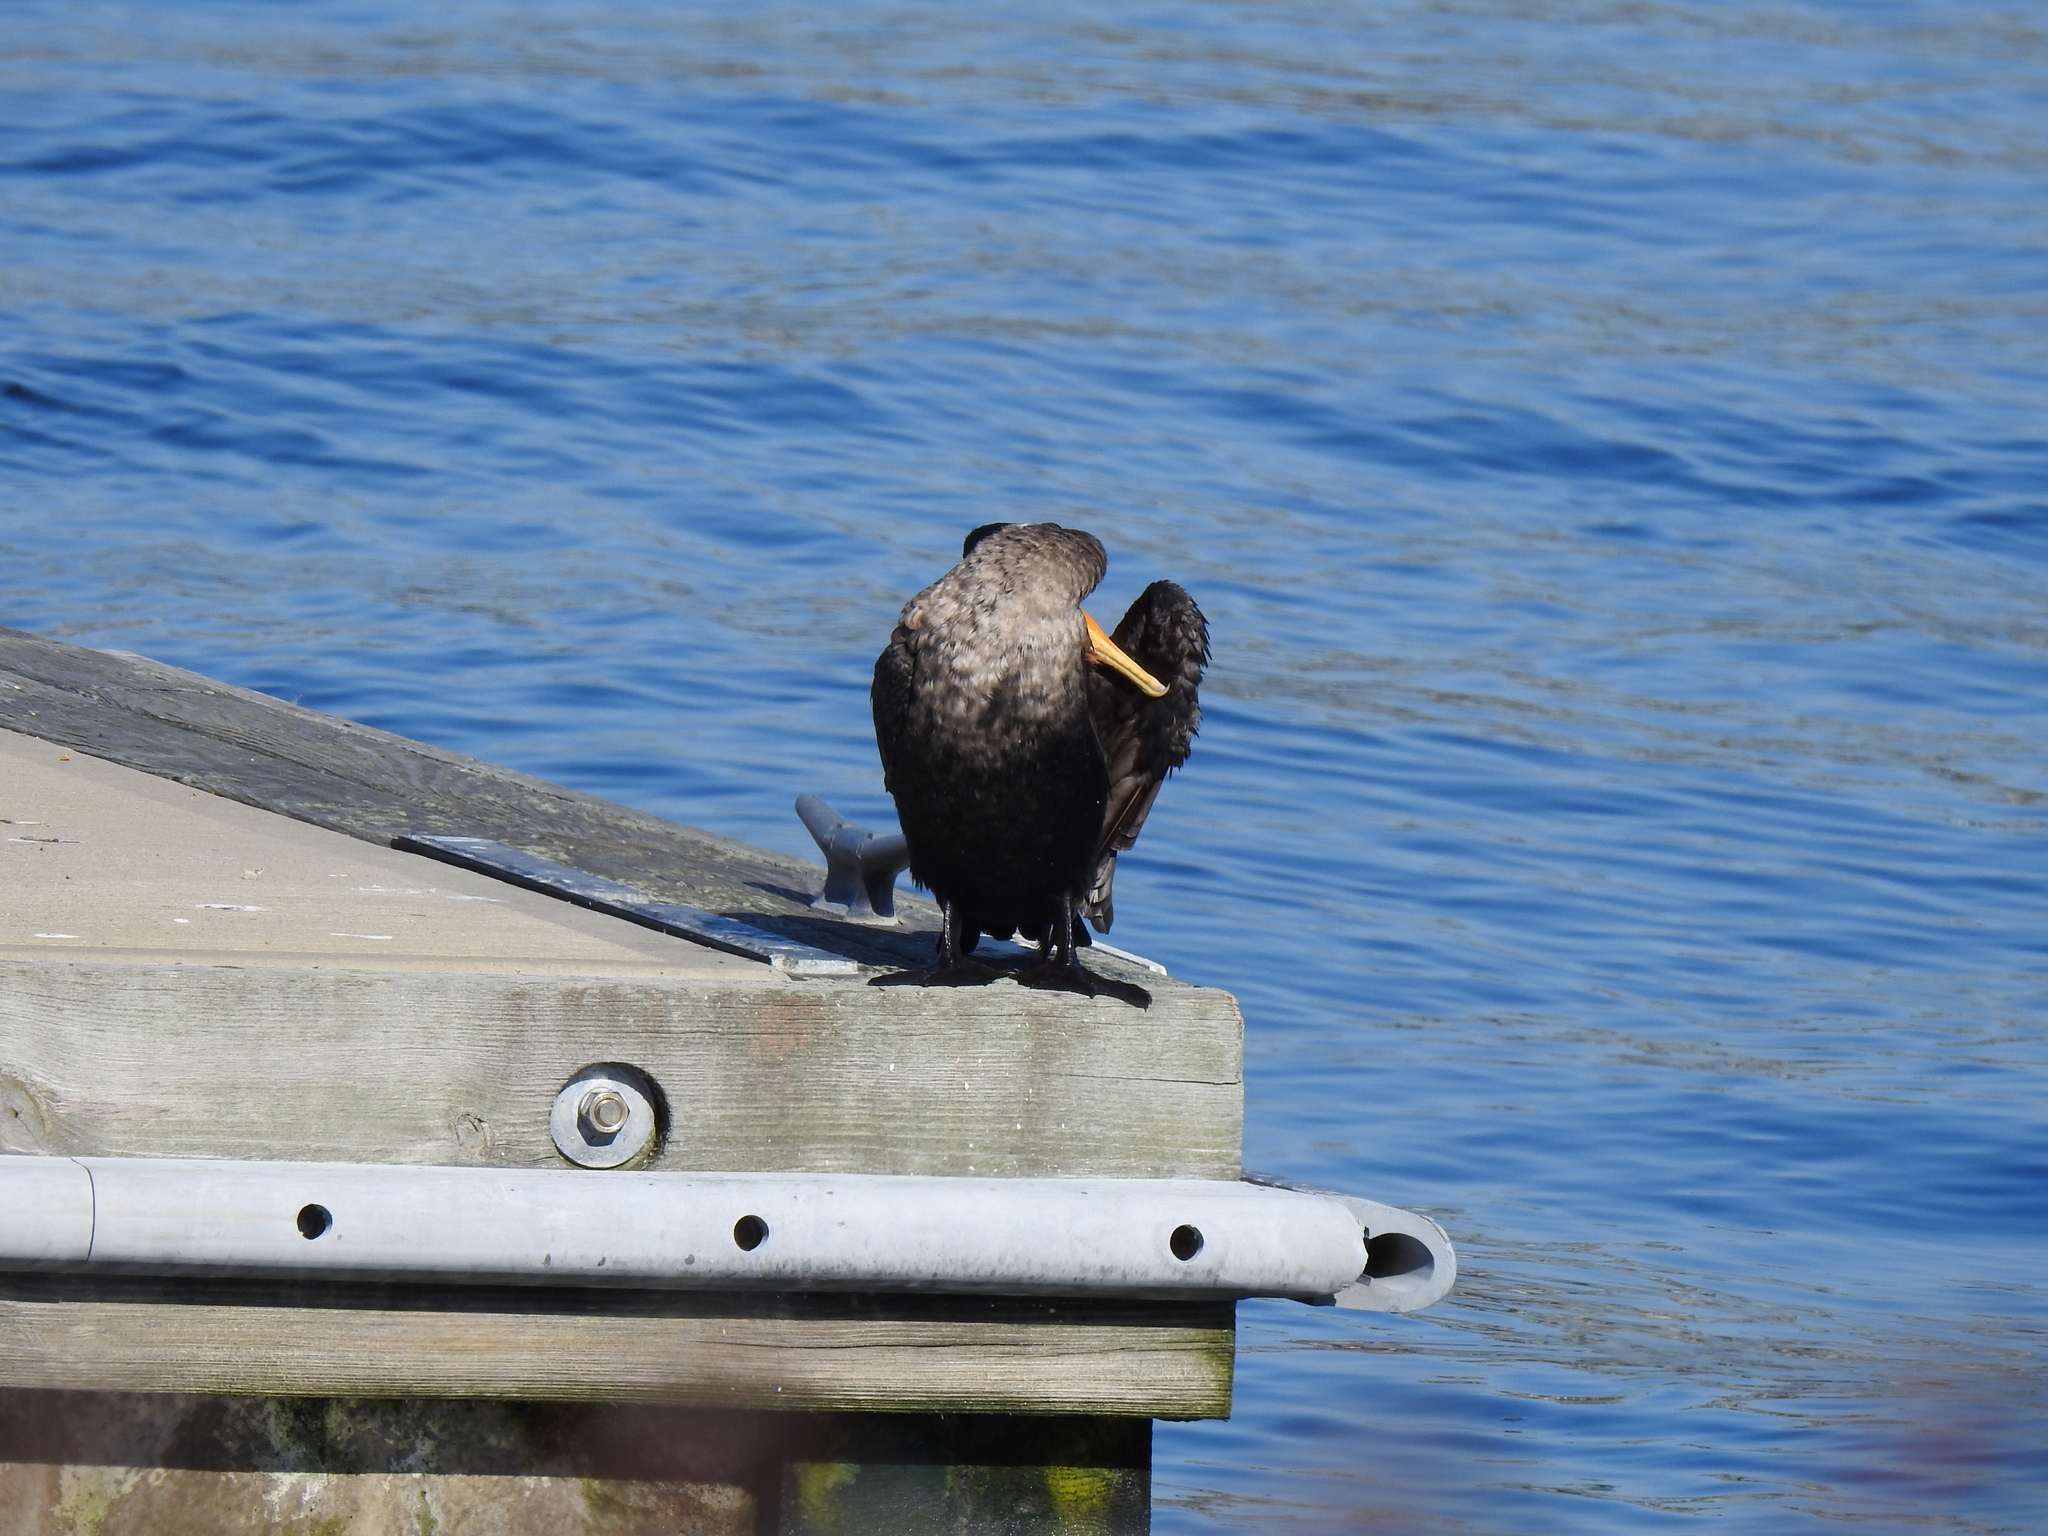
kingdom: Animalia
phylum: Chordata
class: Aves
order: Suliformes
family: Phalacrocoracidae
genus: Phalacrocorax
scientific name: Phalacrocorax auritus
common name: Double-crested cormorant
